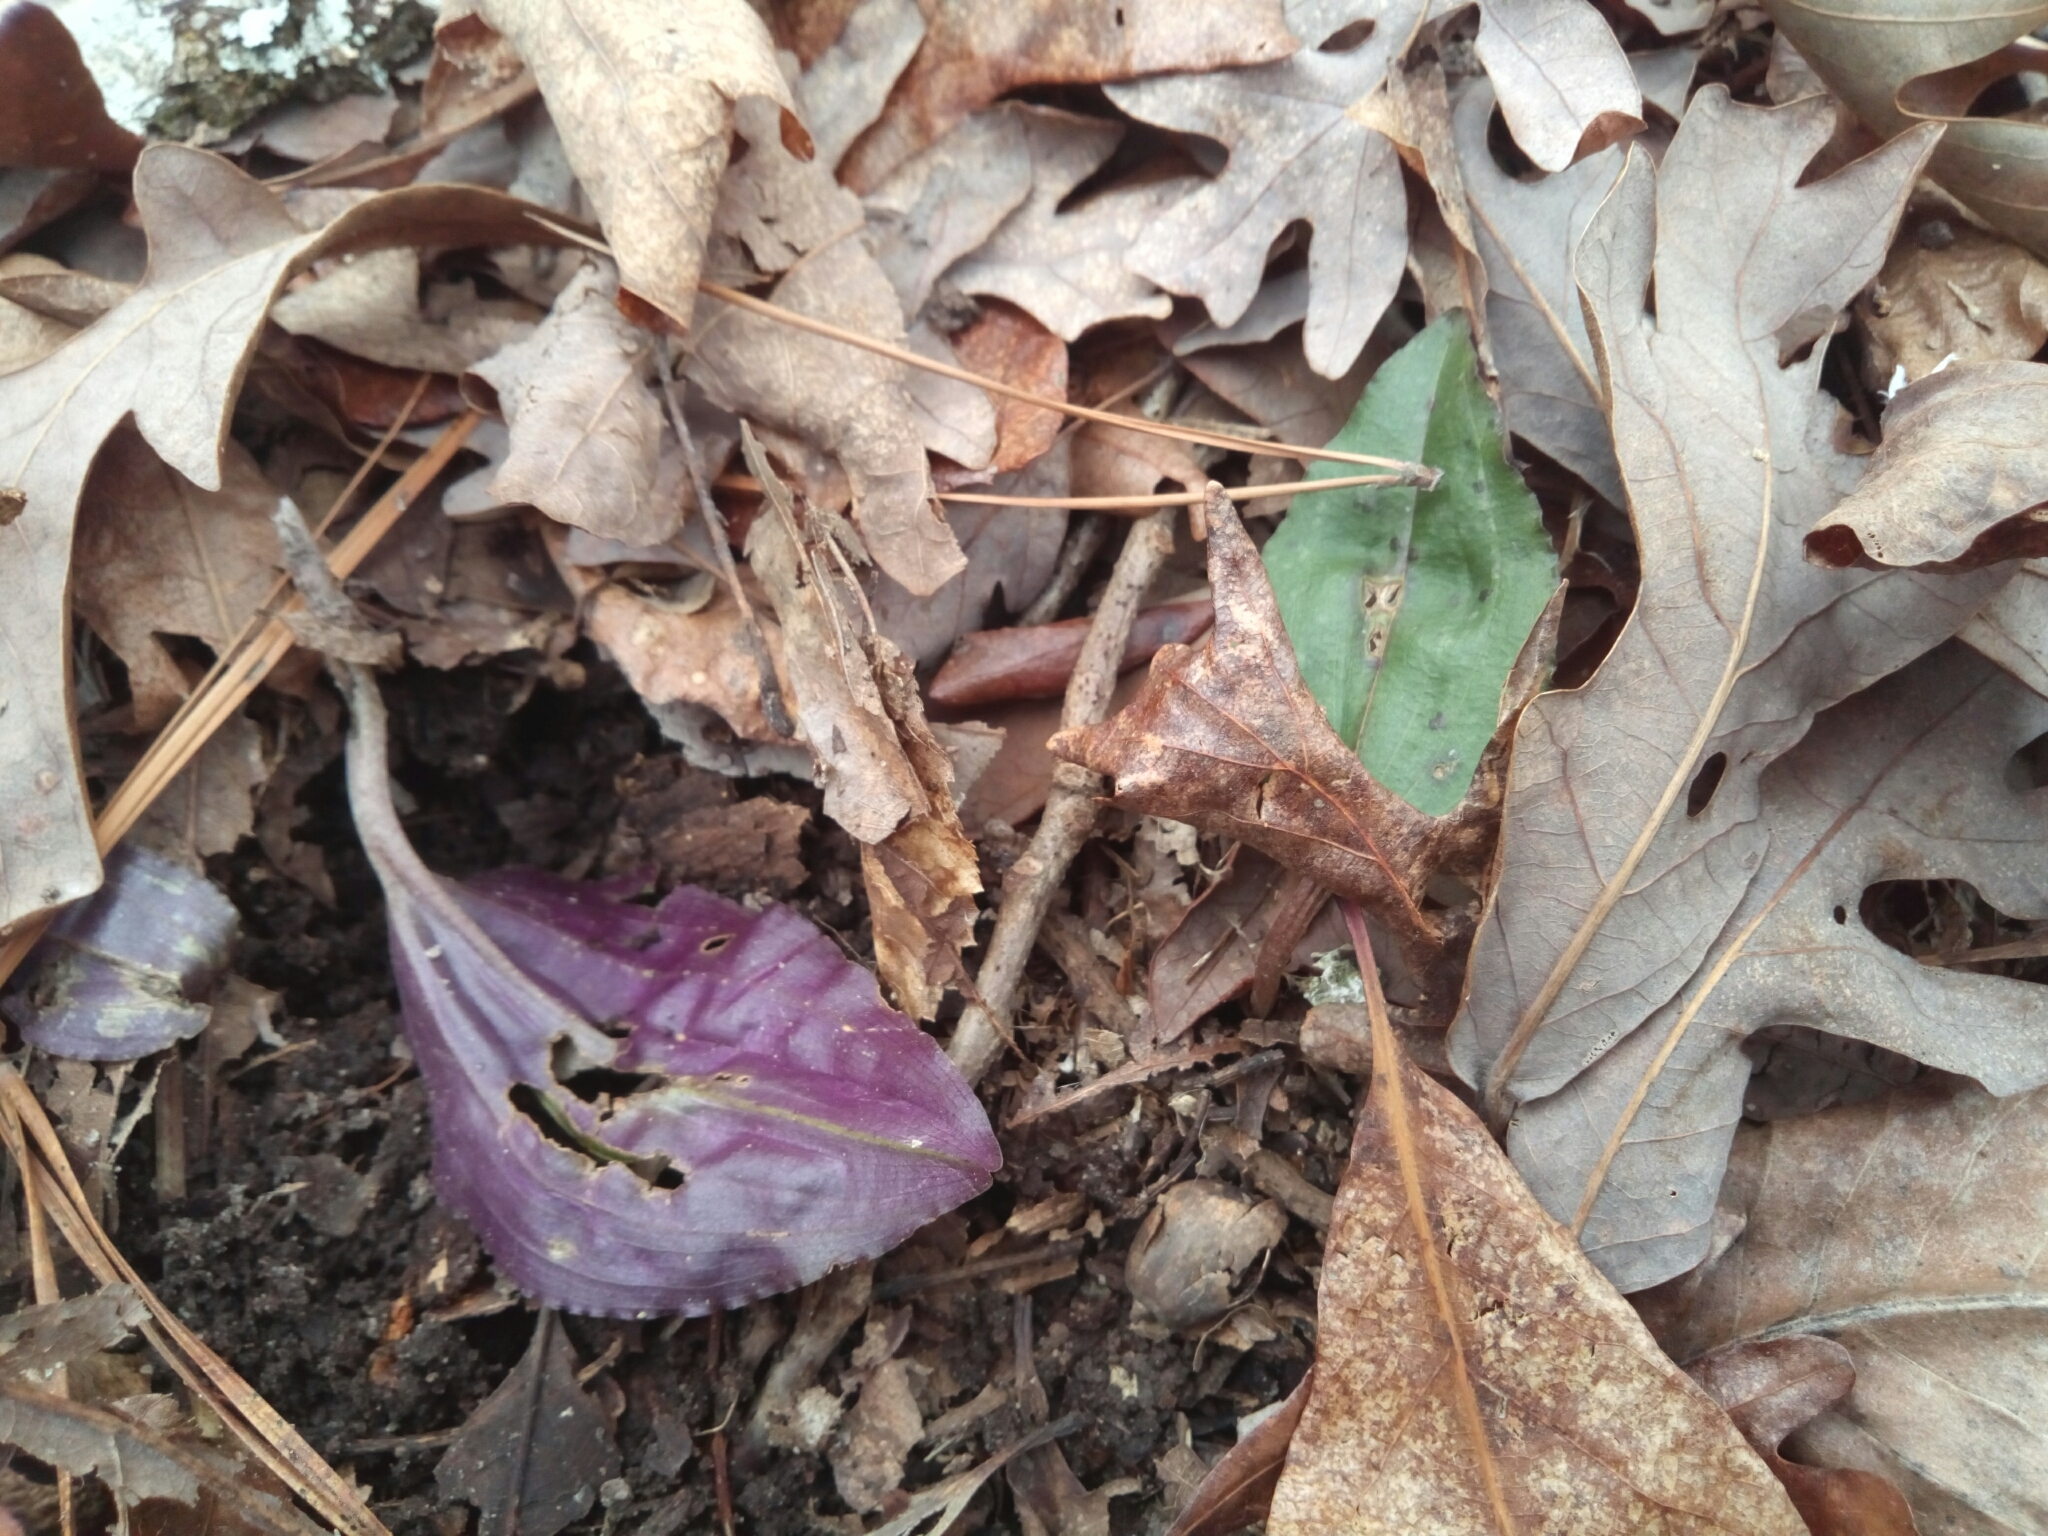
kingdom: Plantae
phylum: Tracheophyta
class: Liliopsida
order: Asparagales
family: Orchidaceae
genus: Tipularia
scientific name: Tipularia discolor
